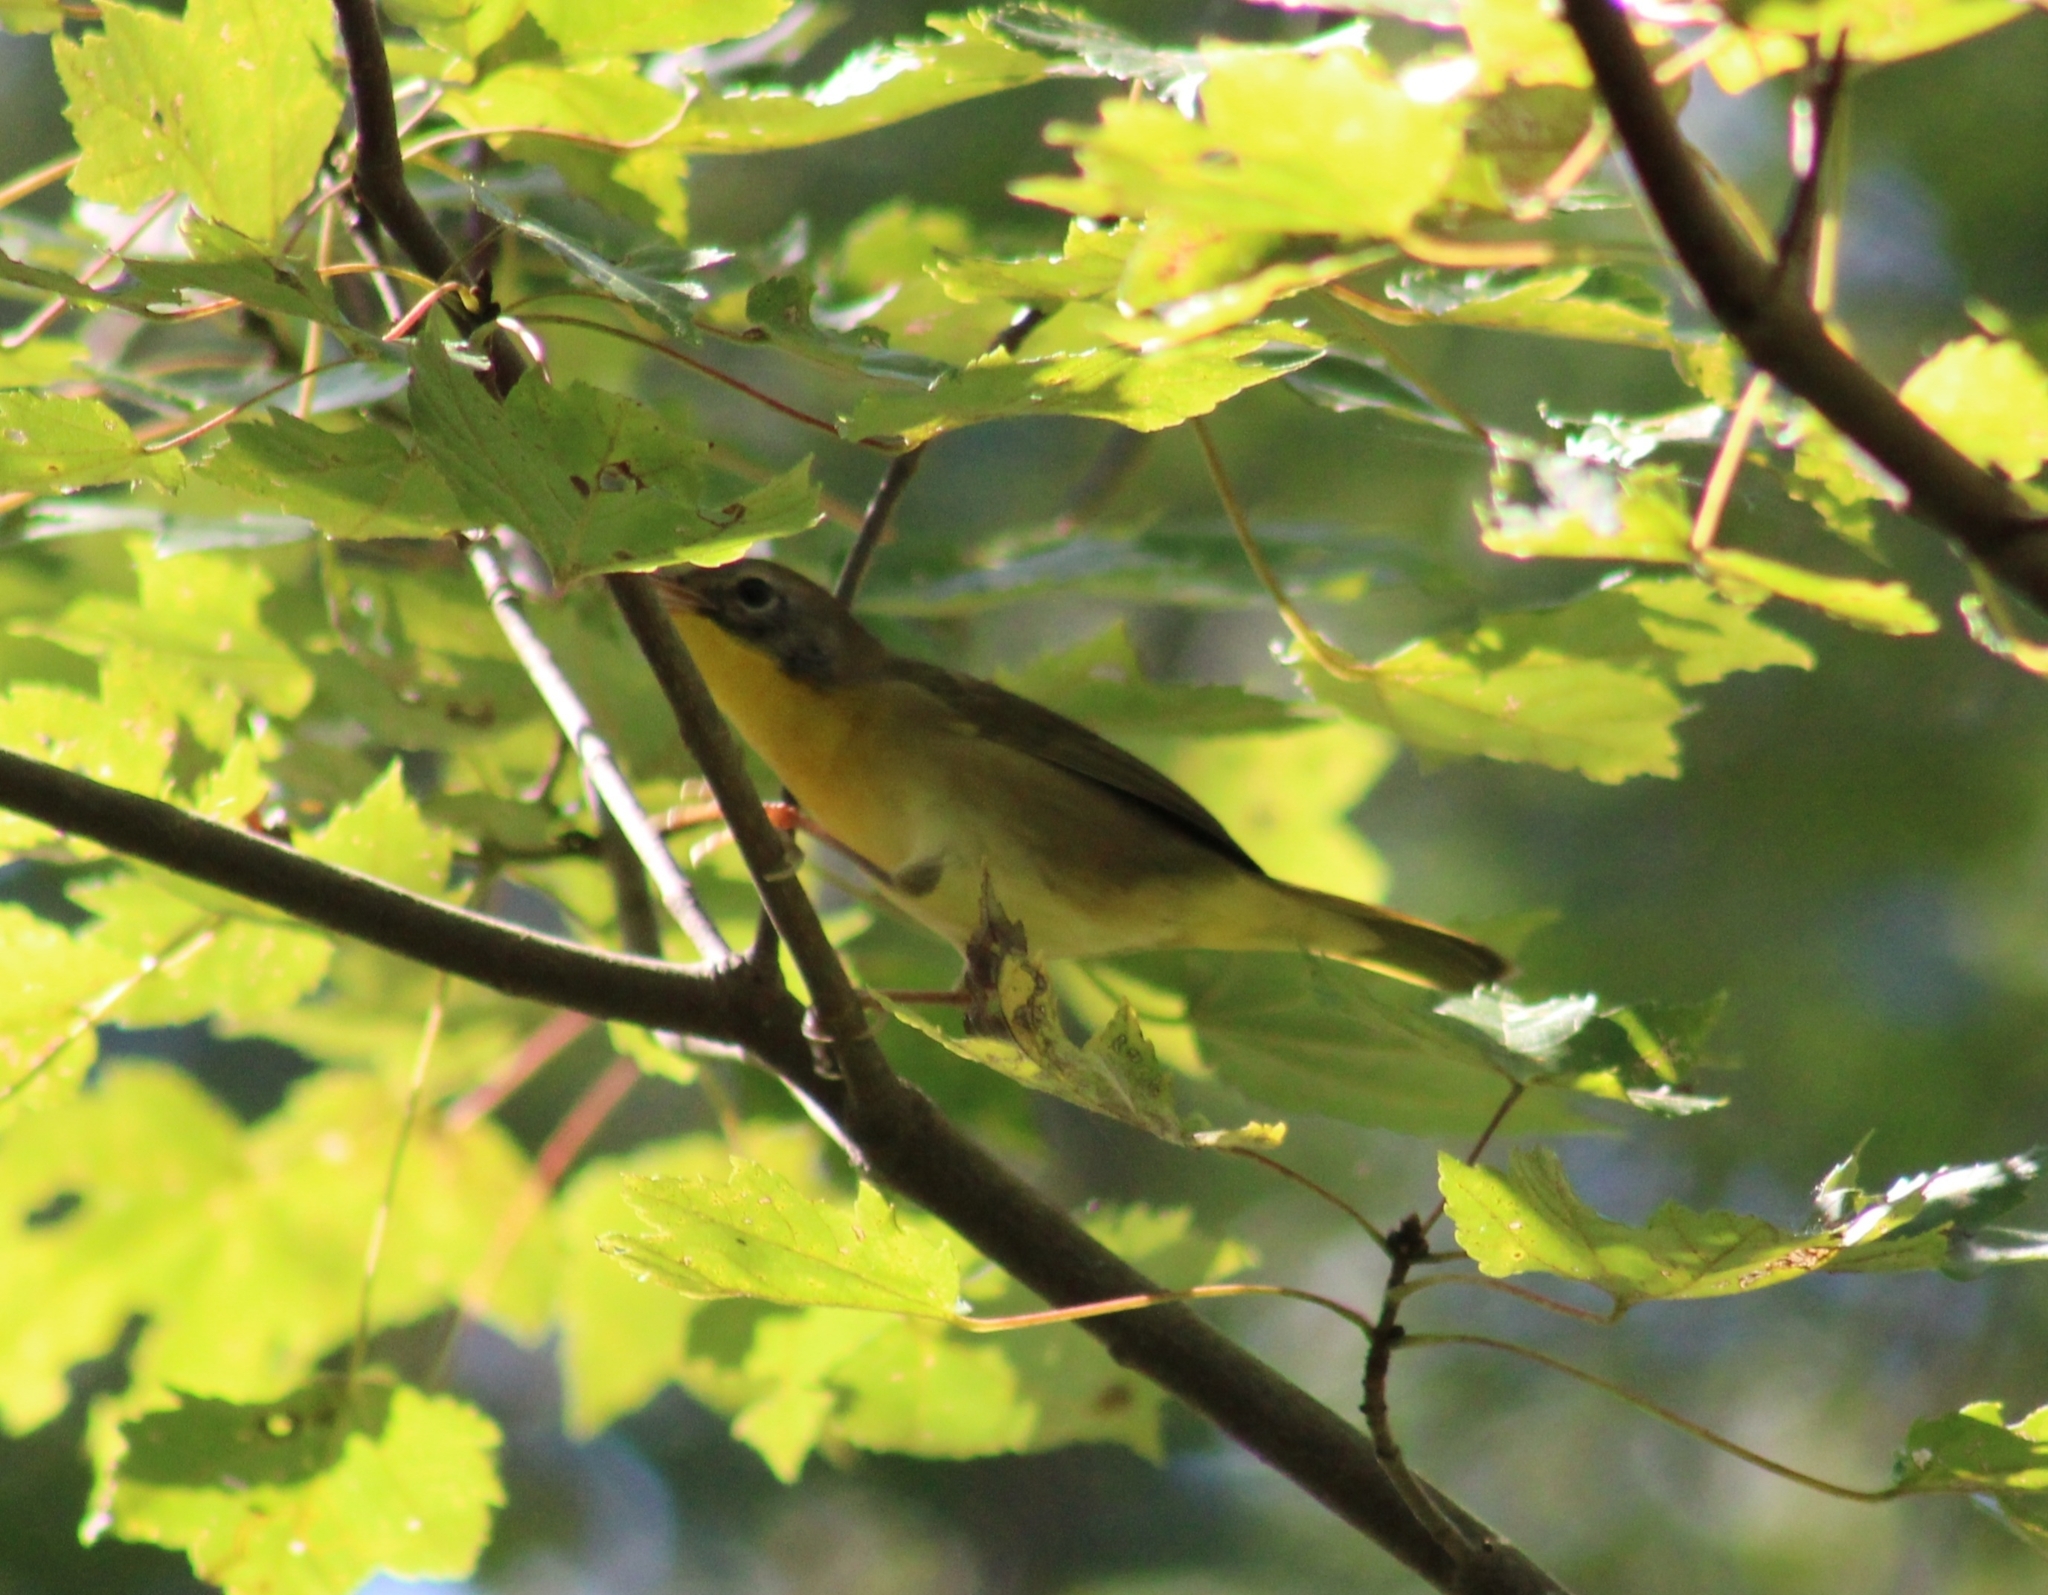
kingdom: Animalia
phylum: Chordata
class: Aves
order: Passeriformes
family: Parulidae
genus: Geothlypis
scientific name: Geothlypis trichas
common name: Common yellowthroat
